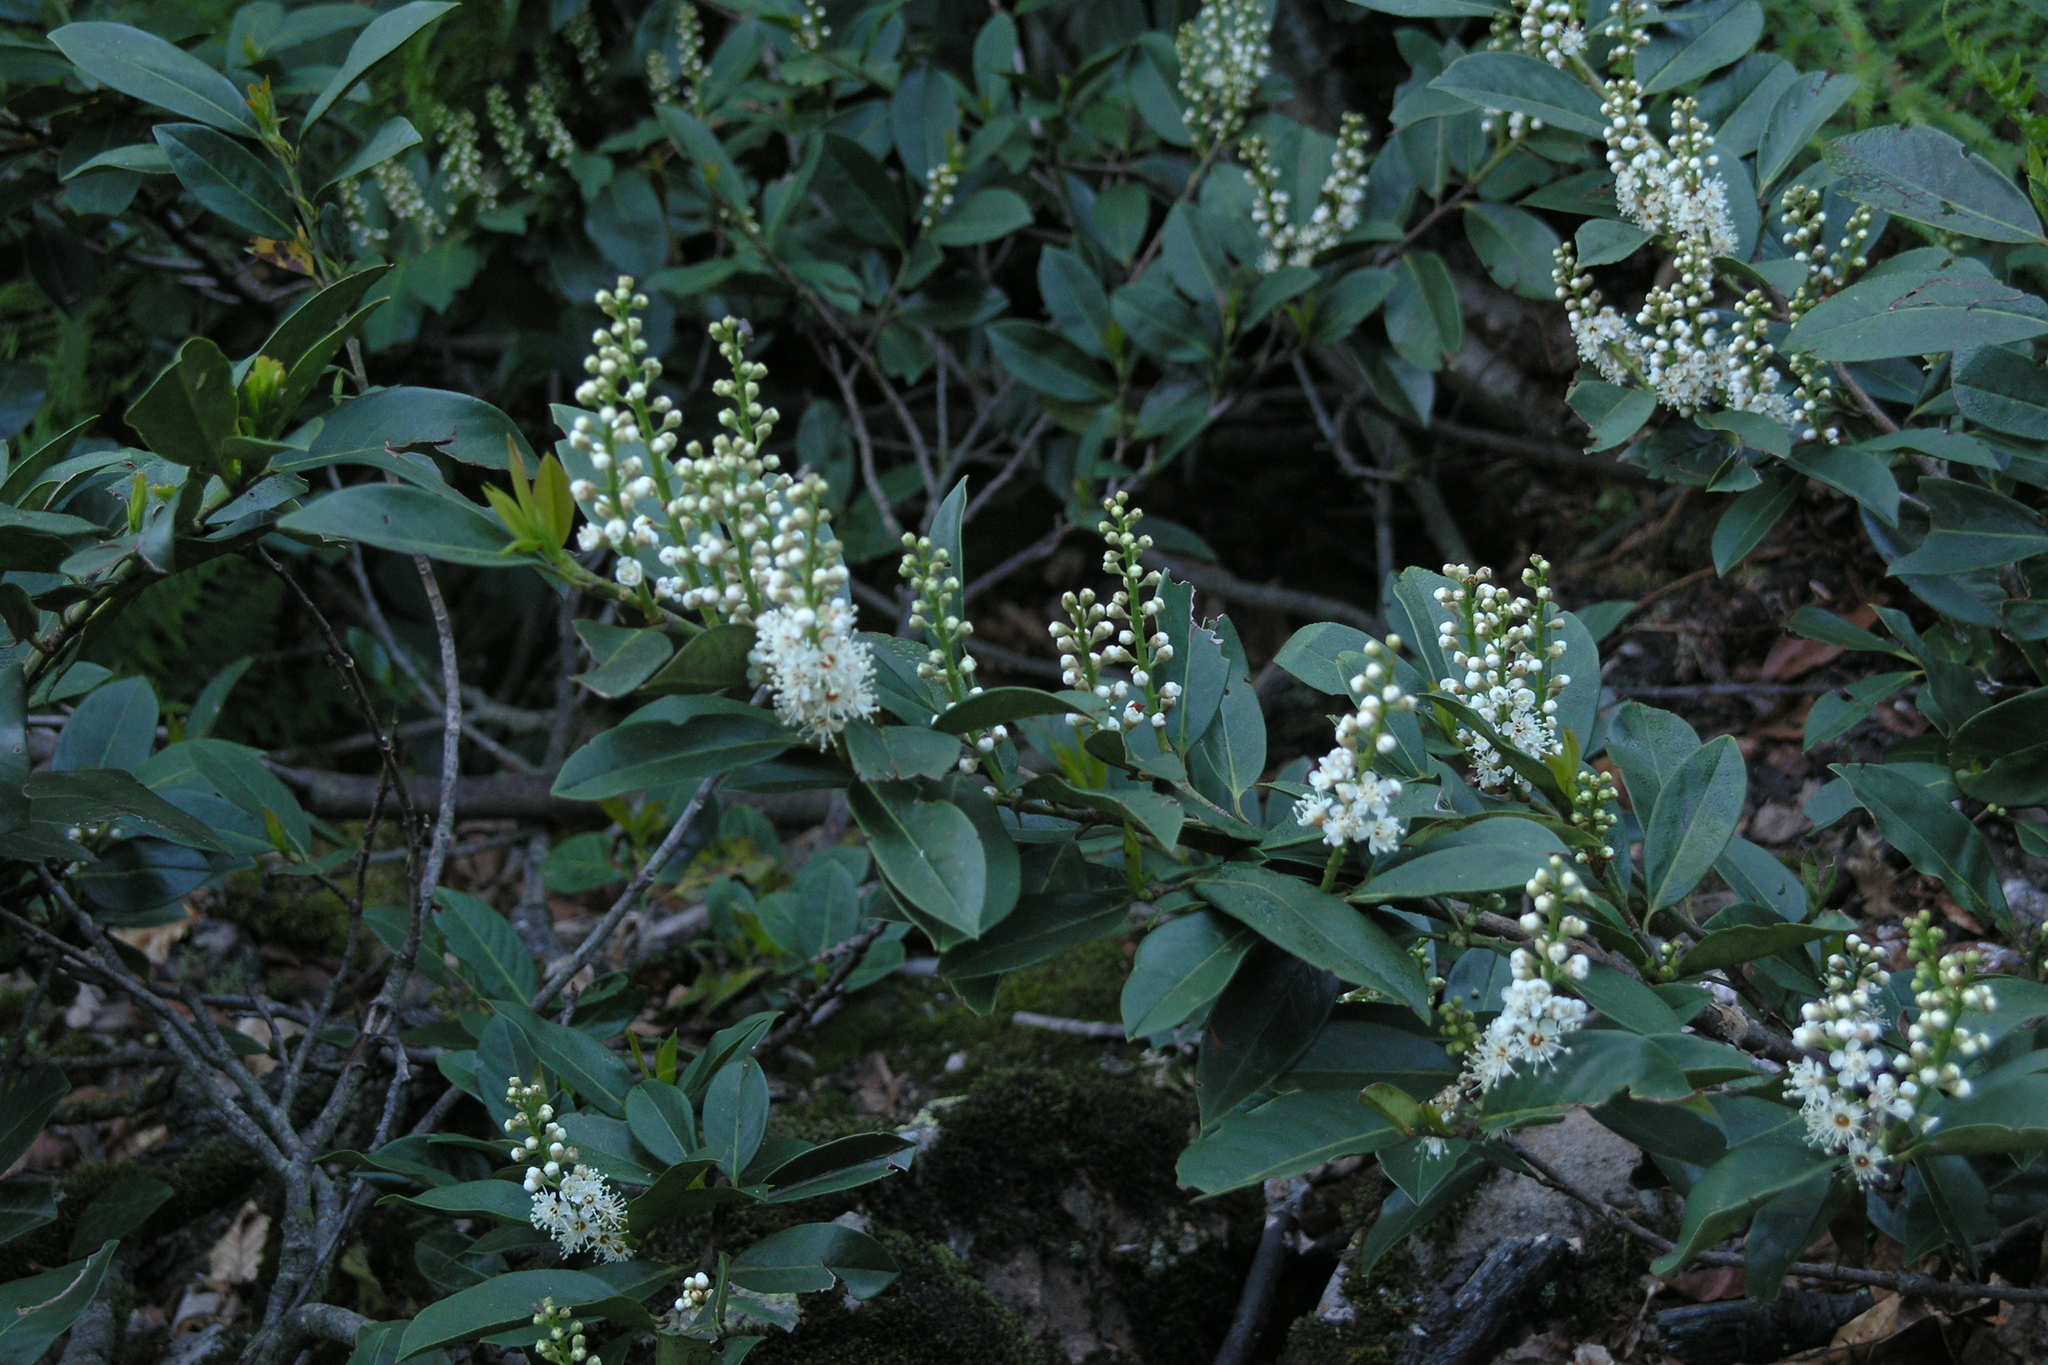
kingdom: Plantae
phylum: Tracheophyta
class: Magnoliopsida
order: Rosales
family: Rosaceae
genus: Prunus
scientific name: Prunus laurocerasus
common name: Cherry laurel
